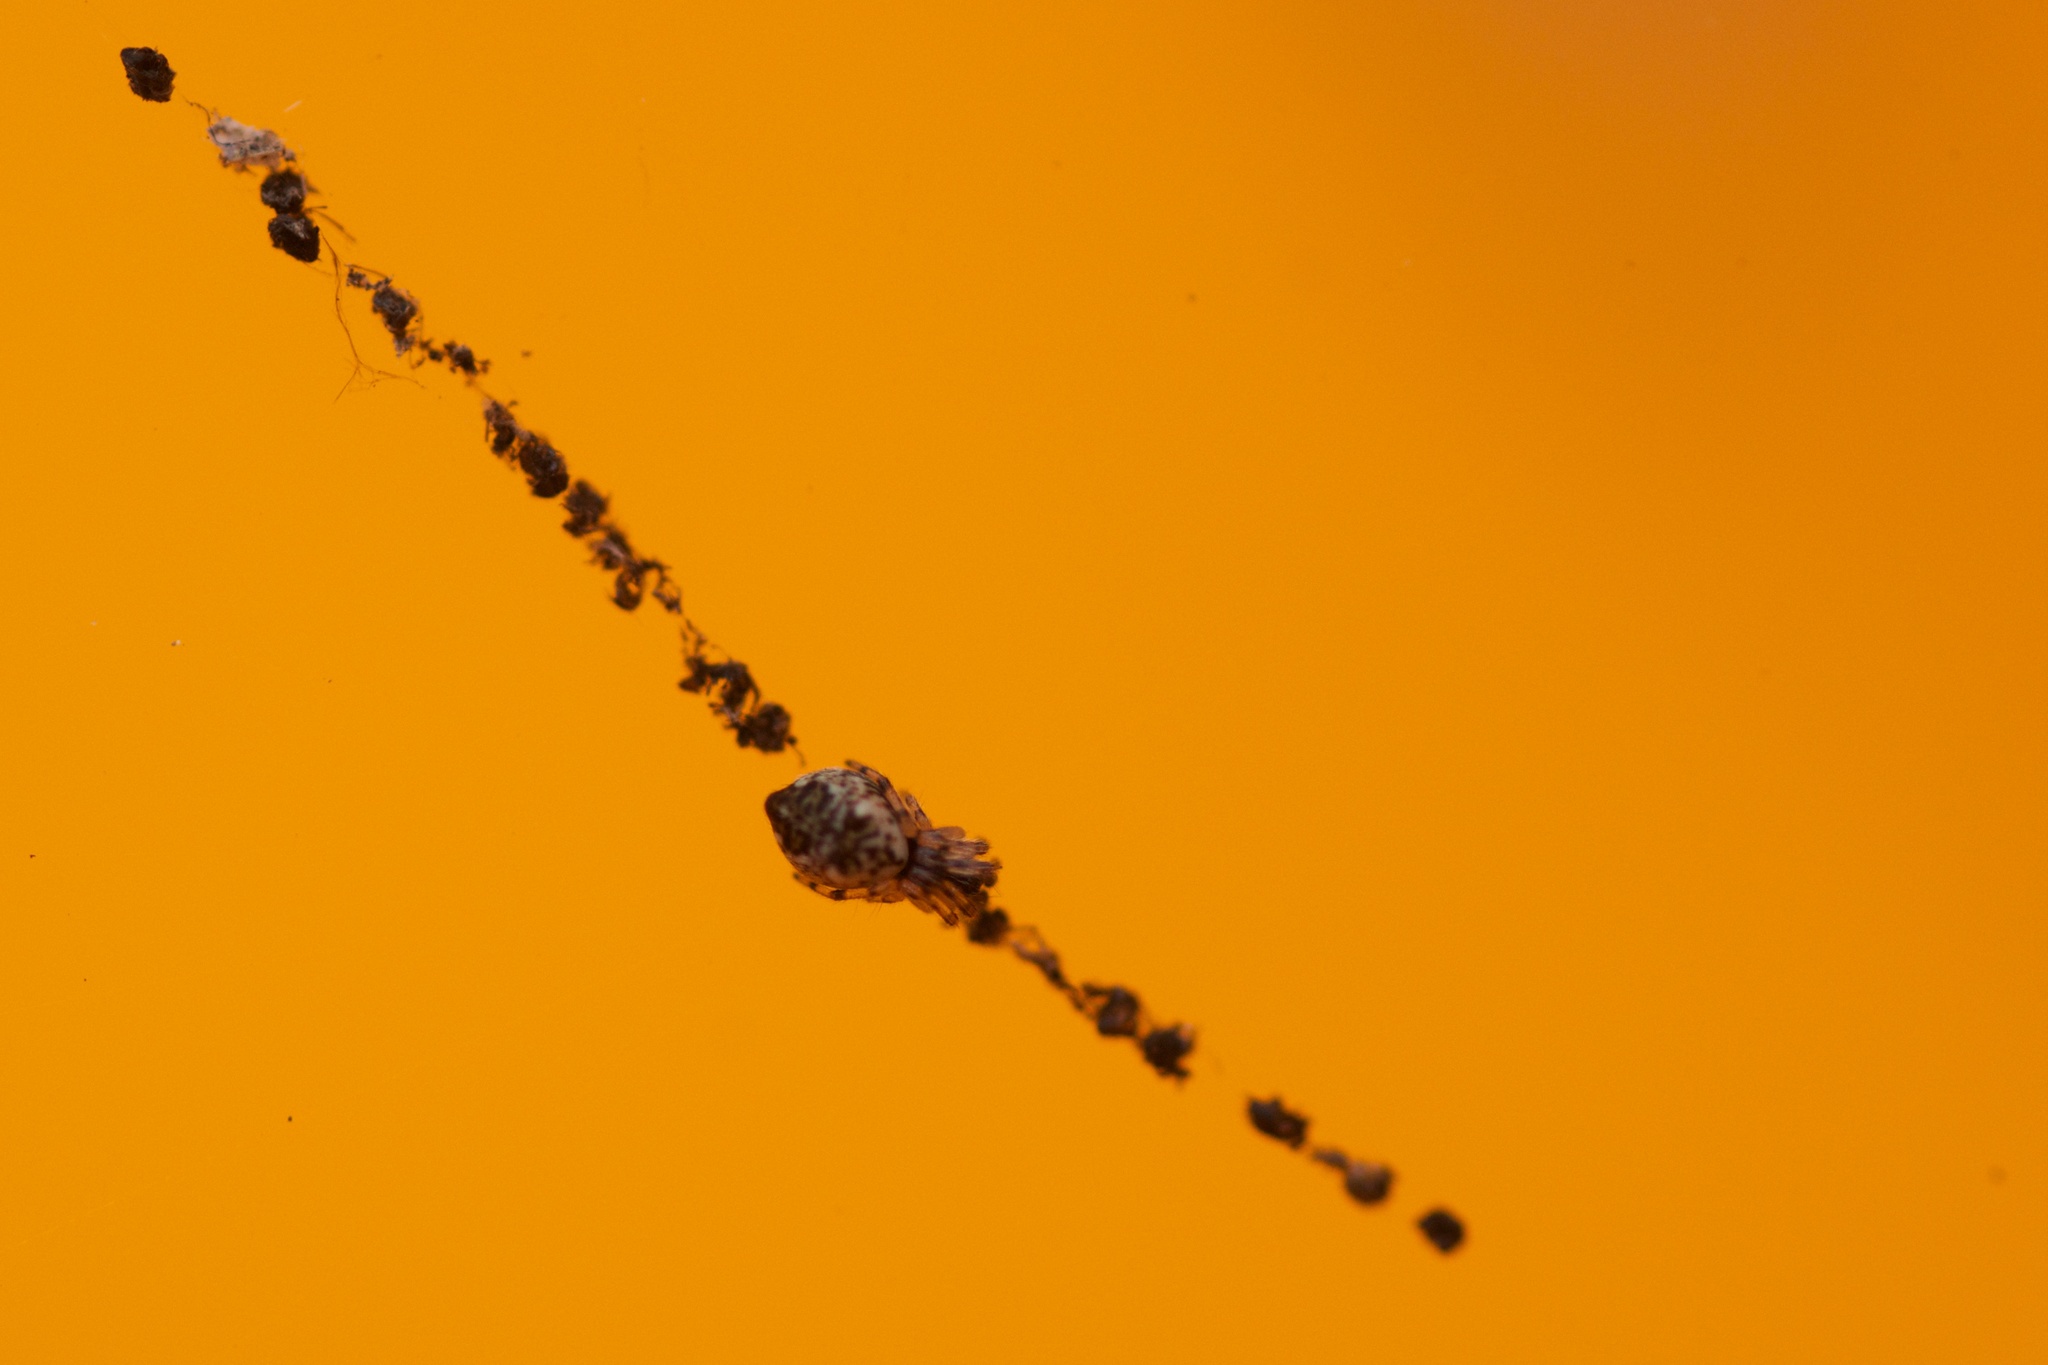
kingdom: Animalia
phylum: Arthropoda
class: Arachnida
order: Araneae
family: Araneidae
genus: Cyclosa
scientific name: Cyclosa turbinata
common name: Orb weavers
